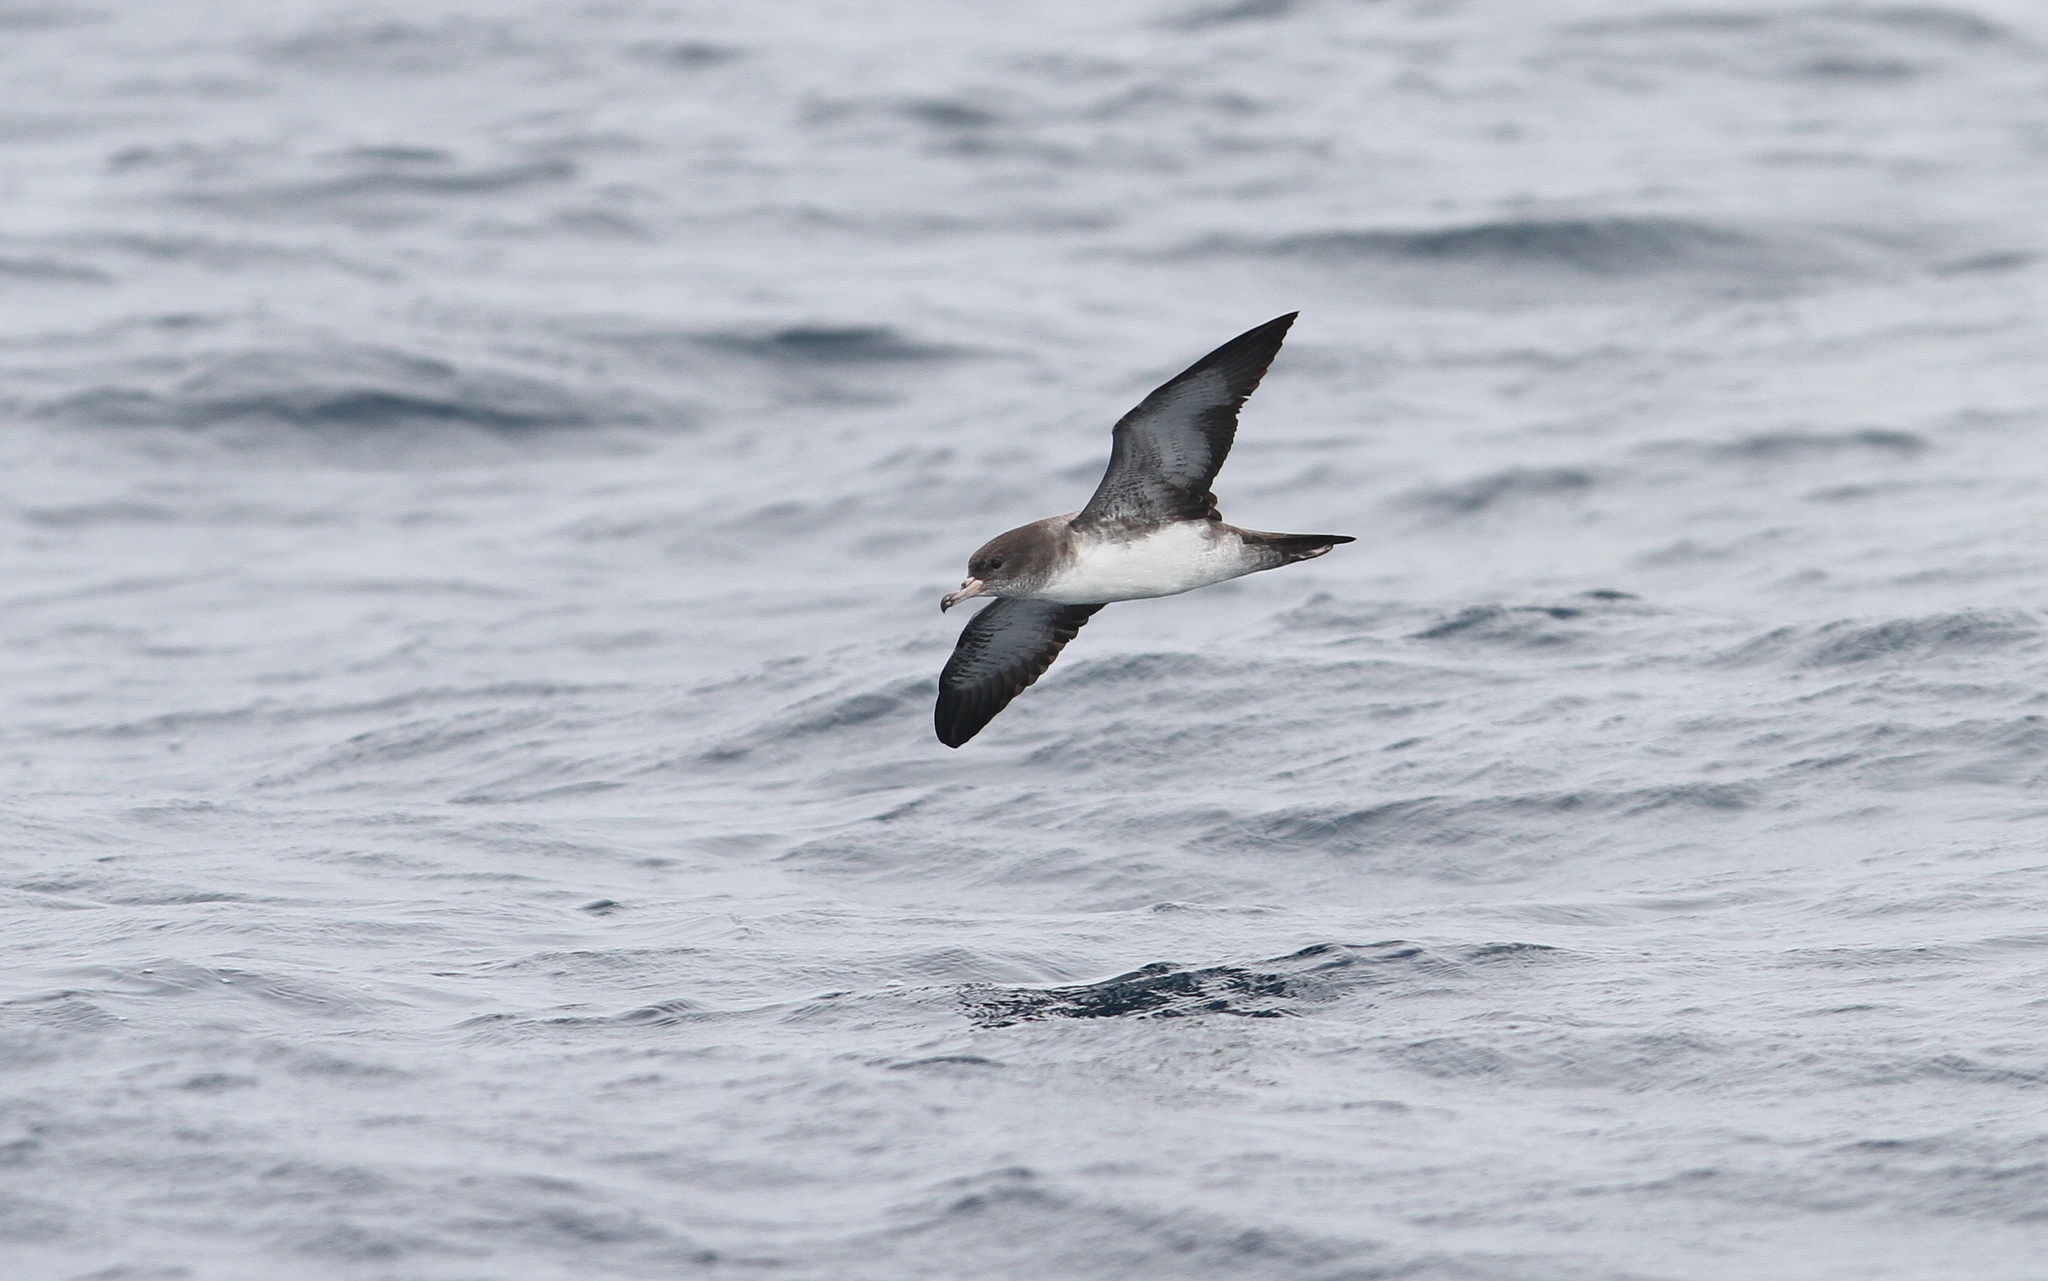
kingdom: Animalia
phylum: Chordata
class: Aves
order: Procellariiformes
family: Procellariidae
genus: Puffinus
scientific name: Puffinus creatopus
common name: Pink-footed shearwater
